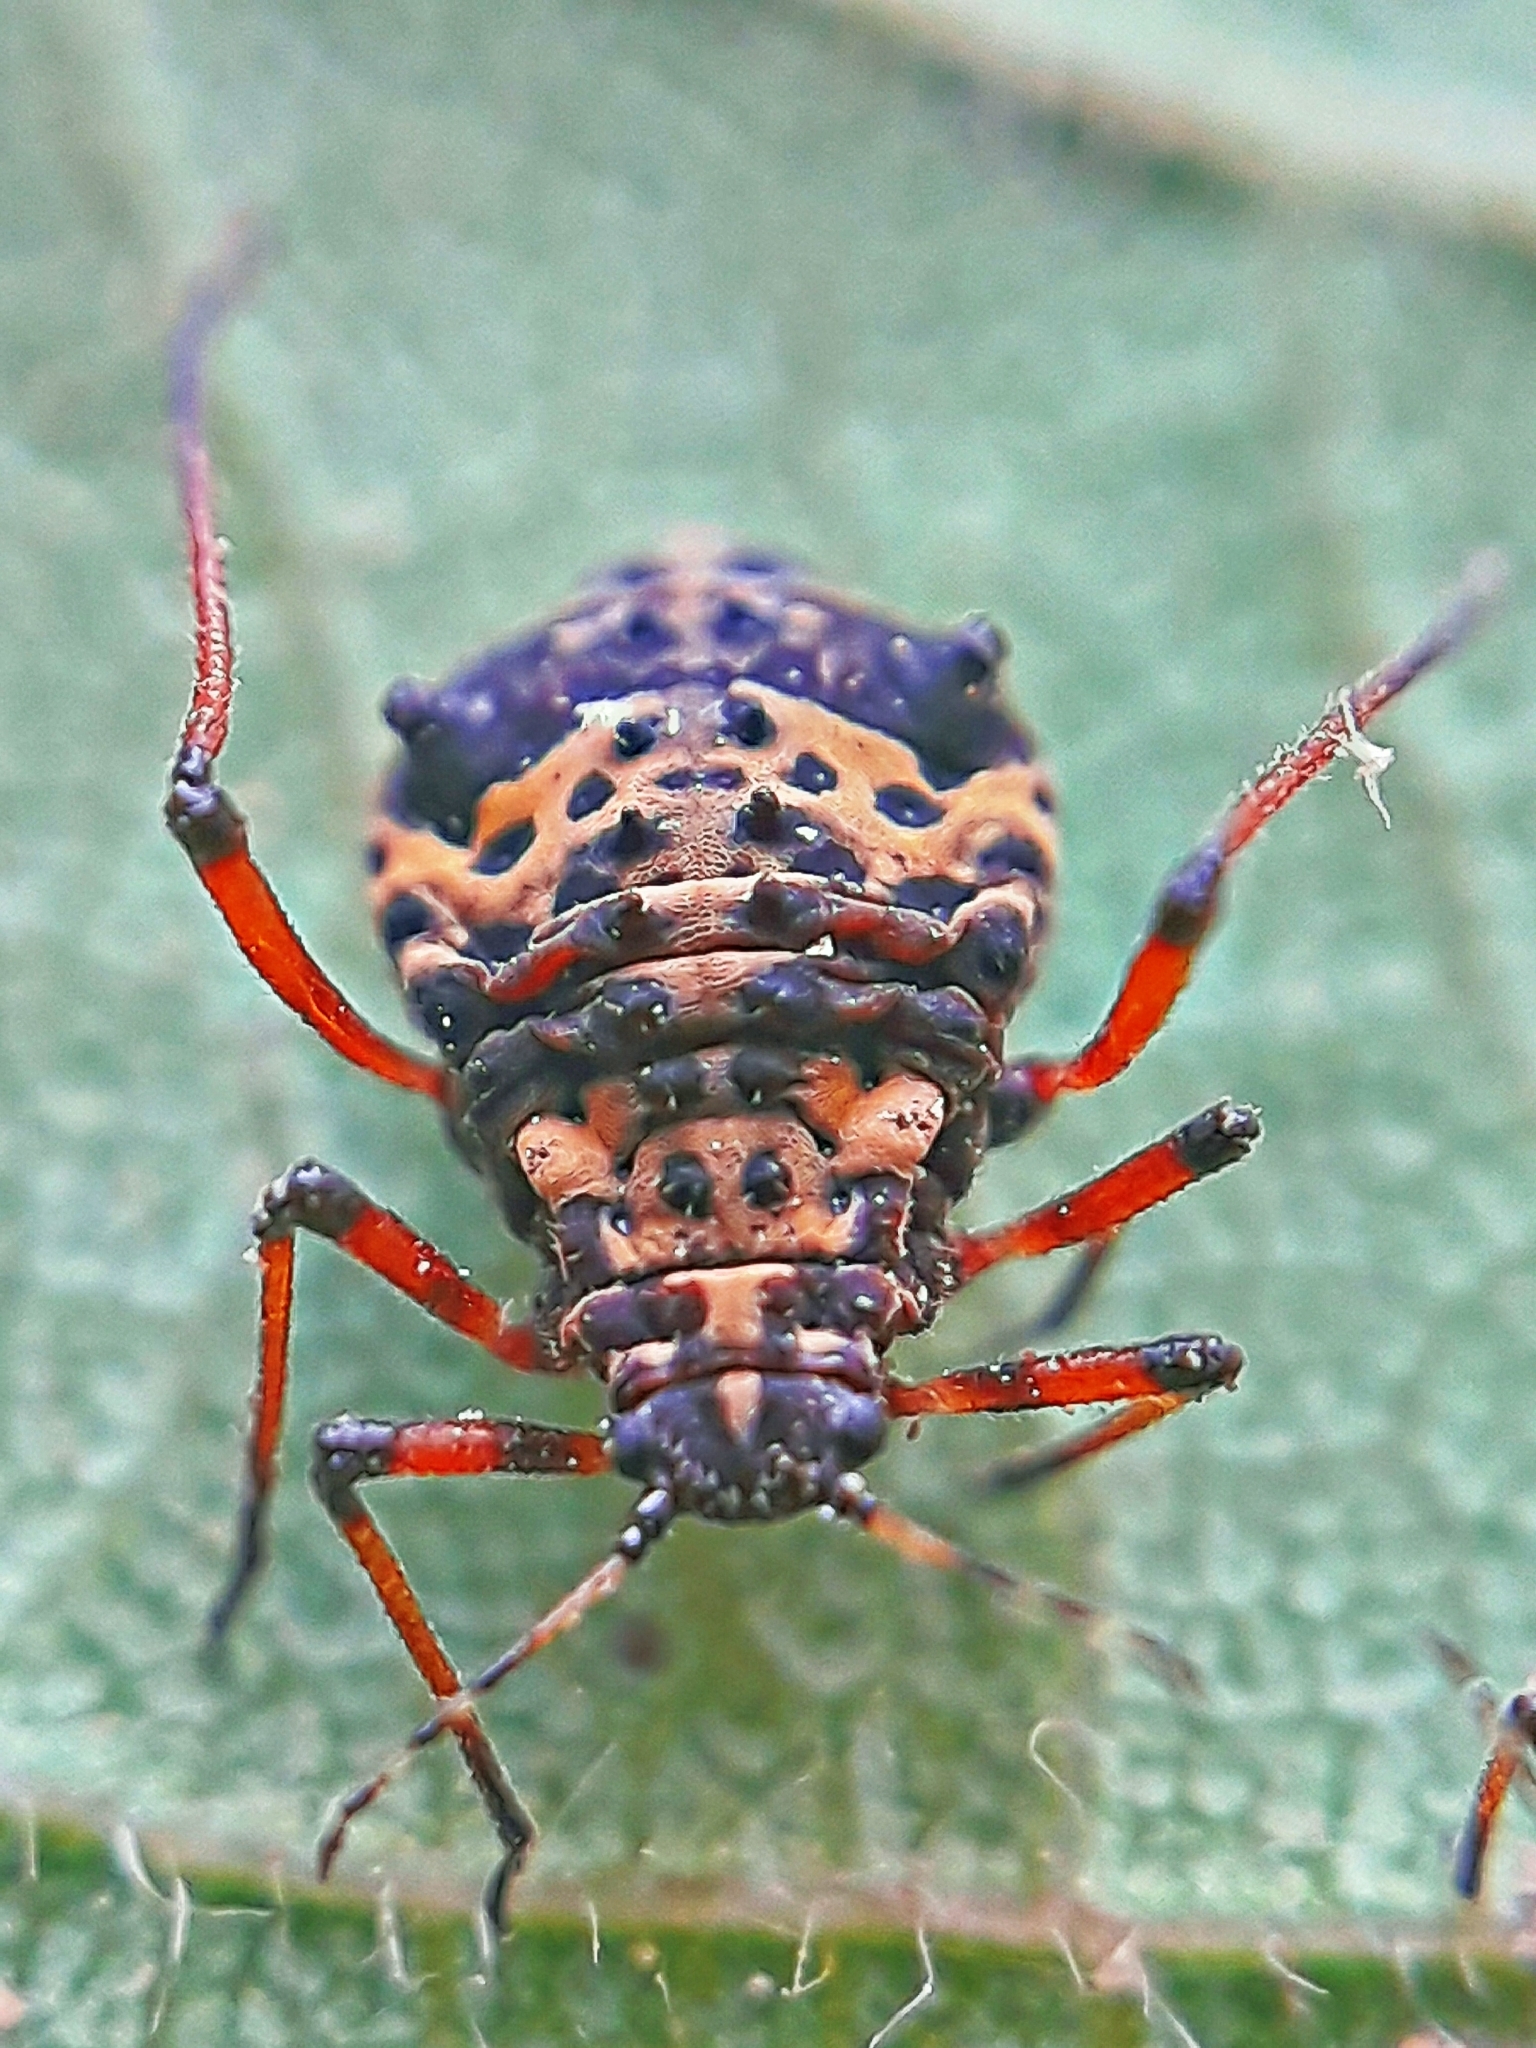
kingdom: Animalia
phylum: Arthropoda
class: Insecta
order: Hemiptera
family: Aphididae
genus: Pterochloroides
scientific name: Pterochloroides persicae
